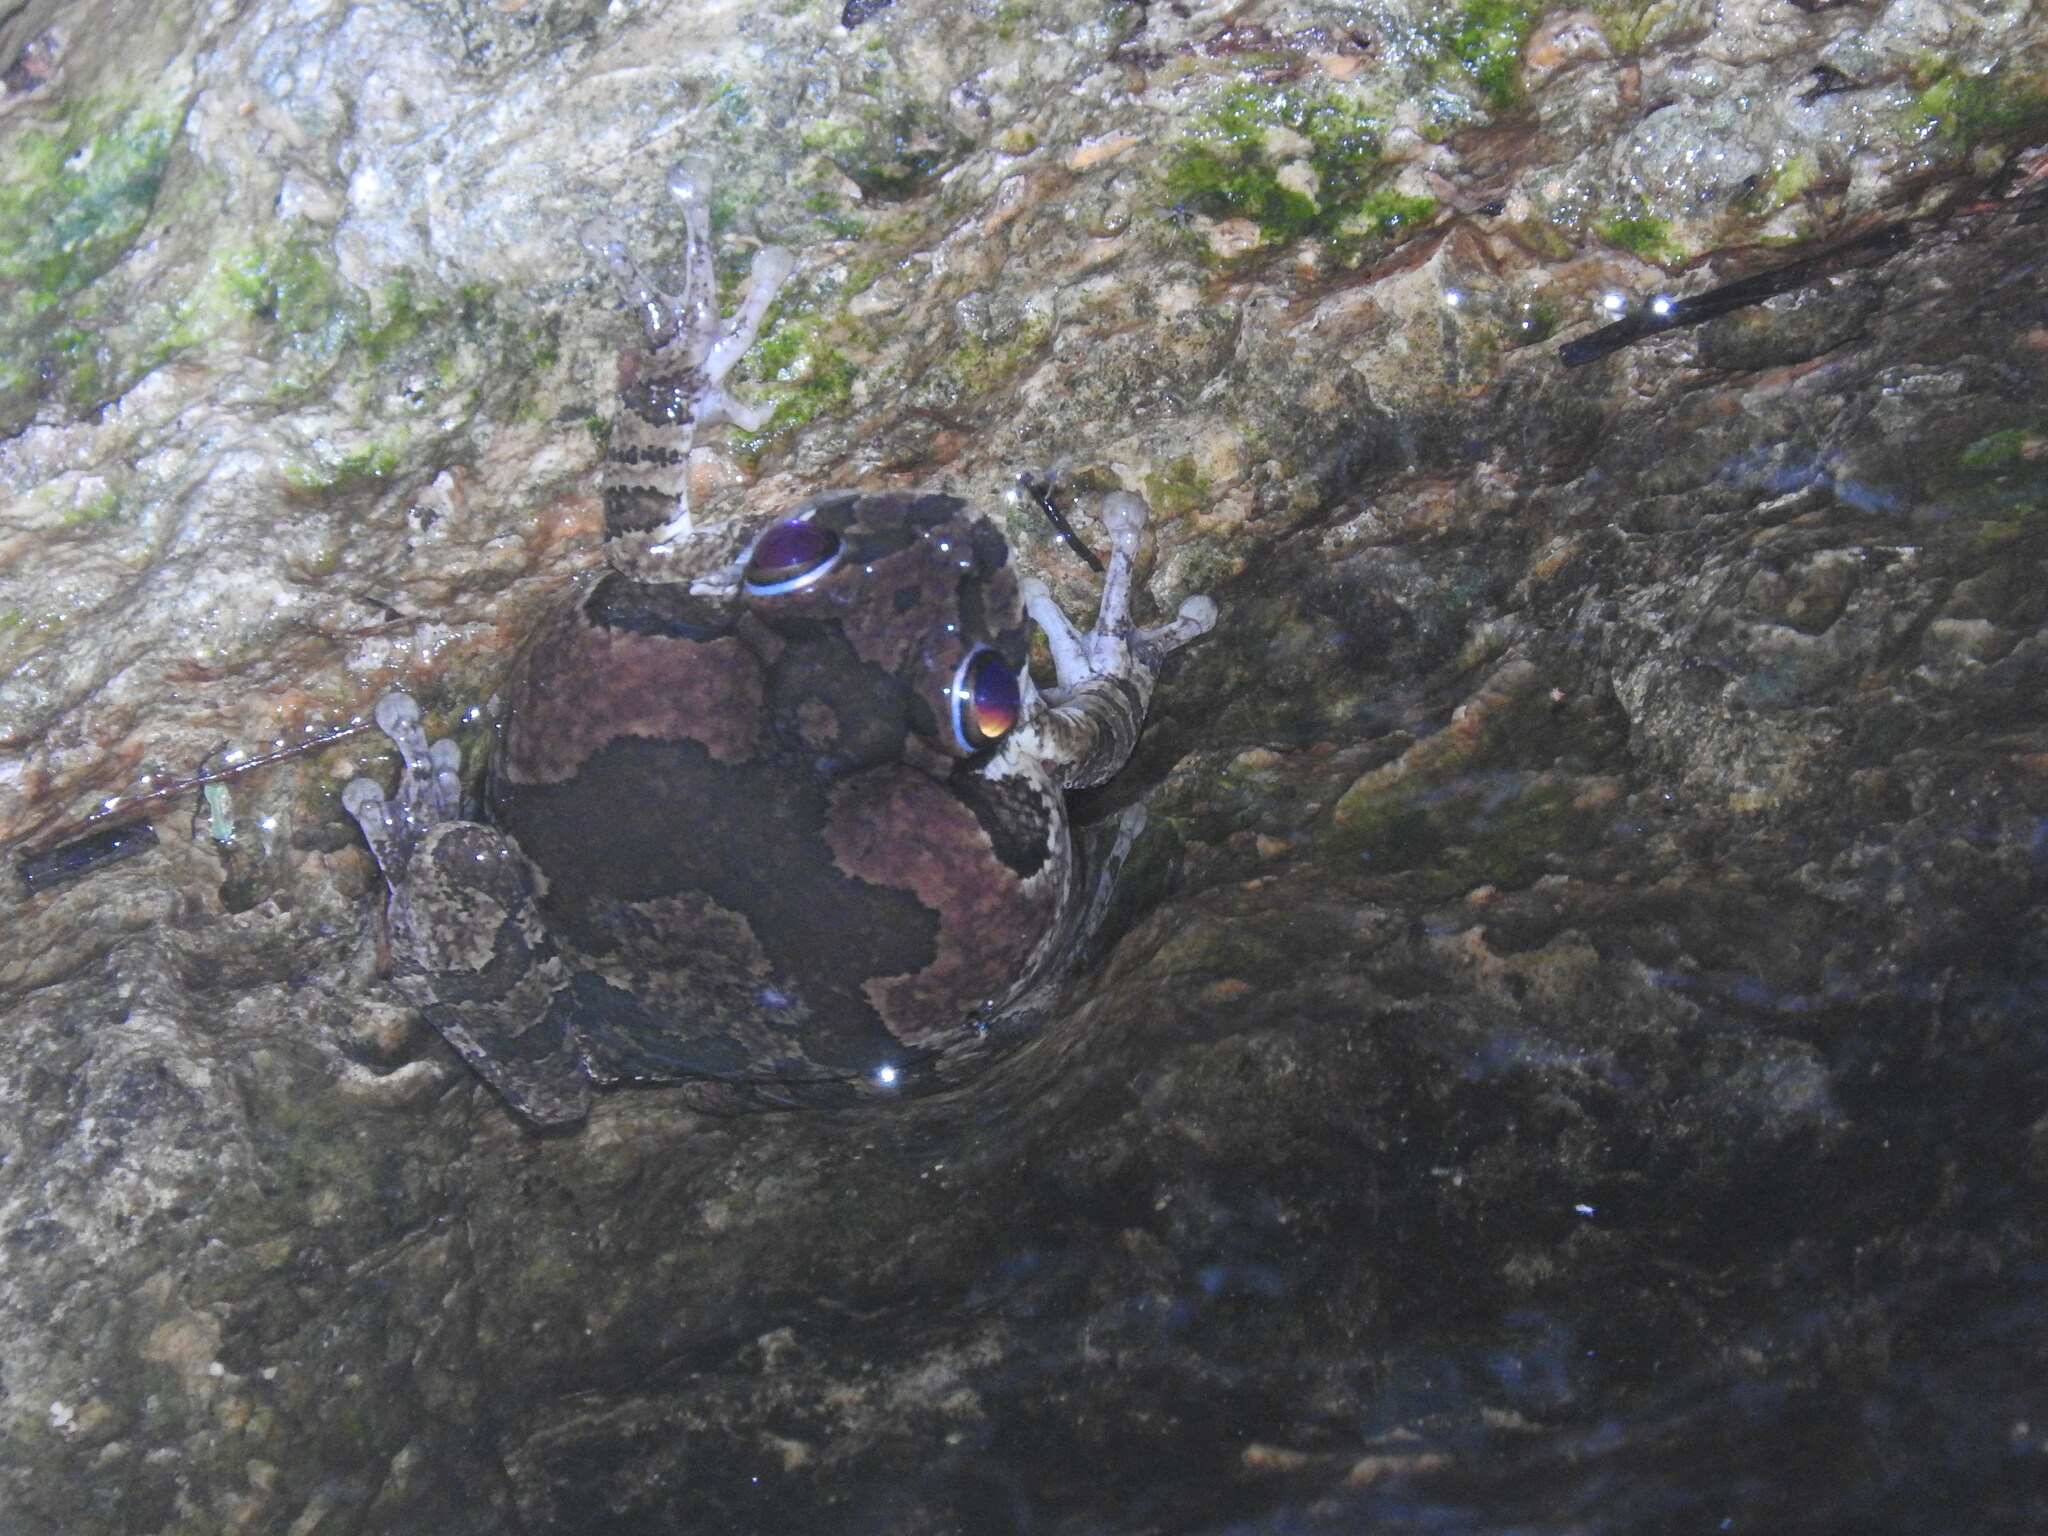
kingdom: Animalia
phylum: Chordata
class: Amphibia
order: Anura
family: Hylidae
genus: Smilisca
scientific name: Smilisca baudinii
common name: Mexican smilisca
